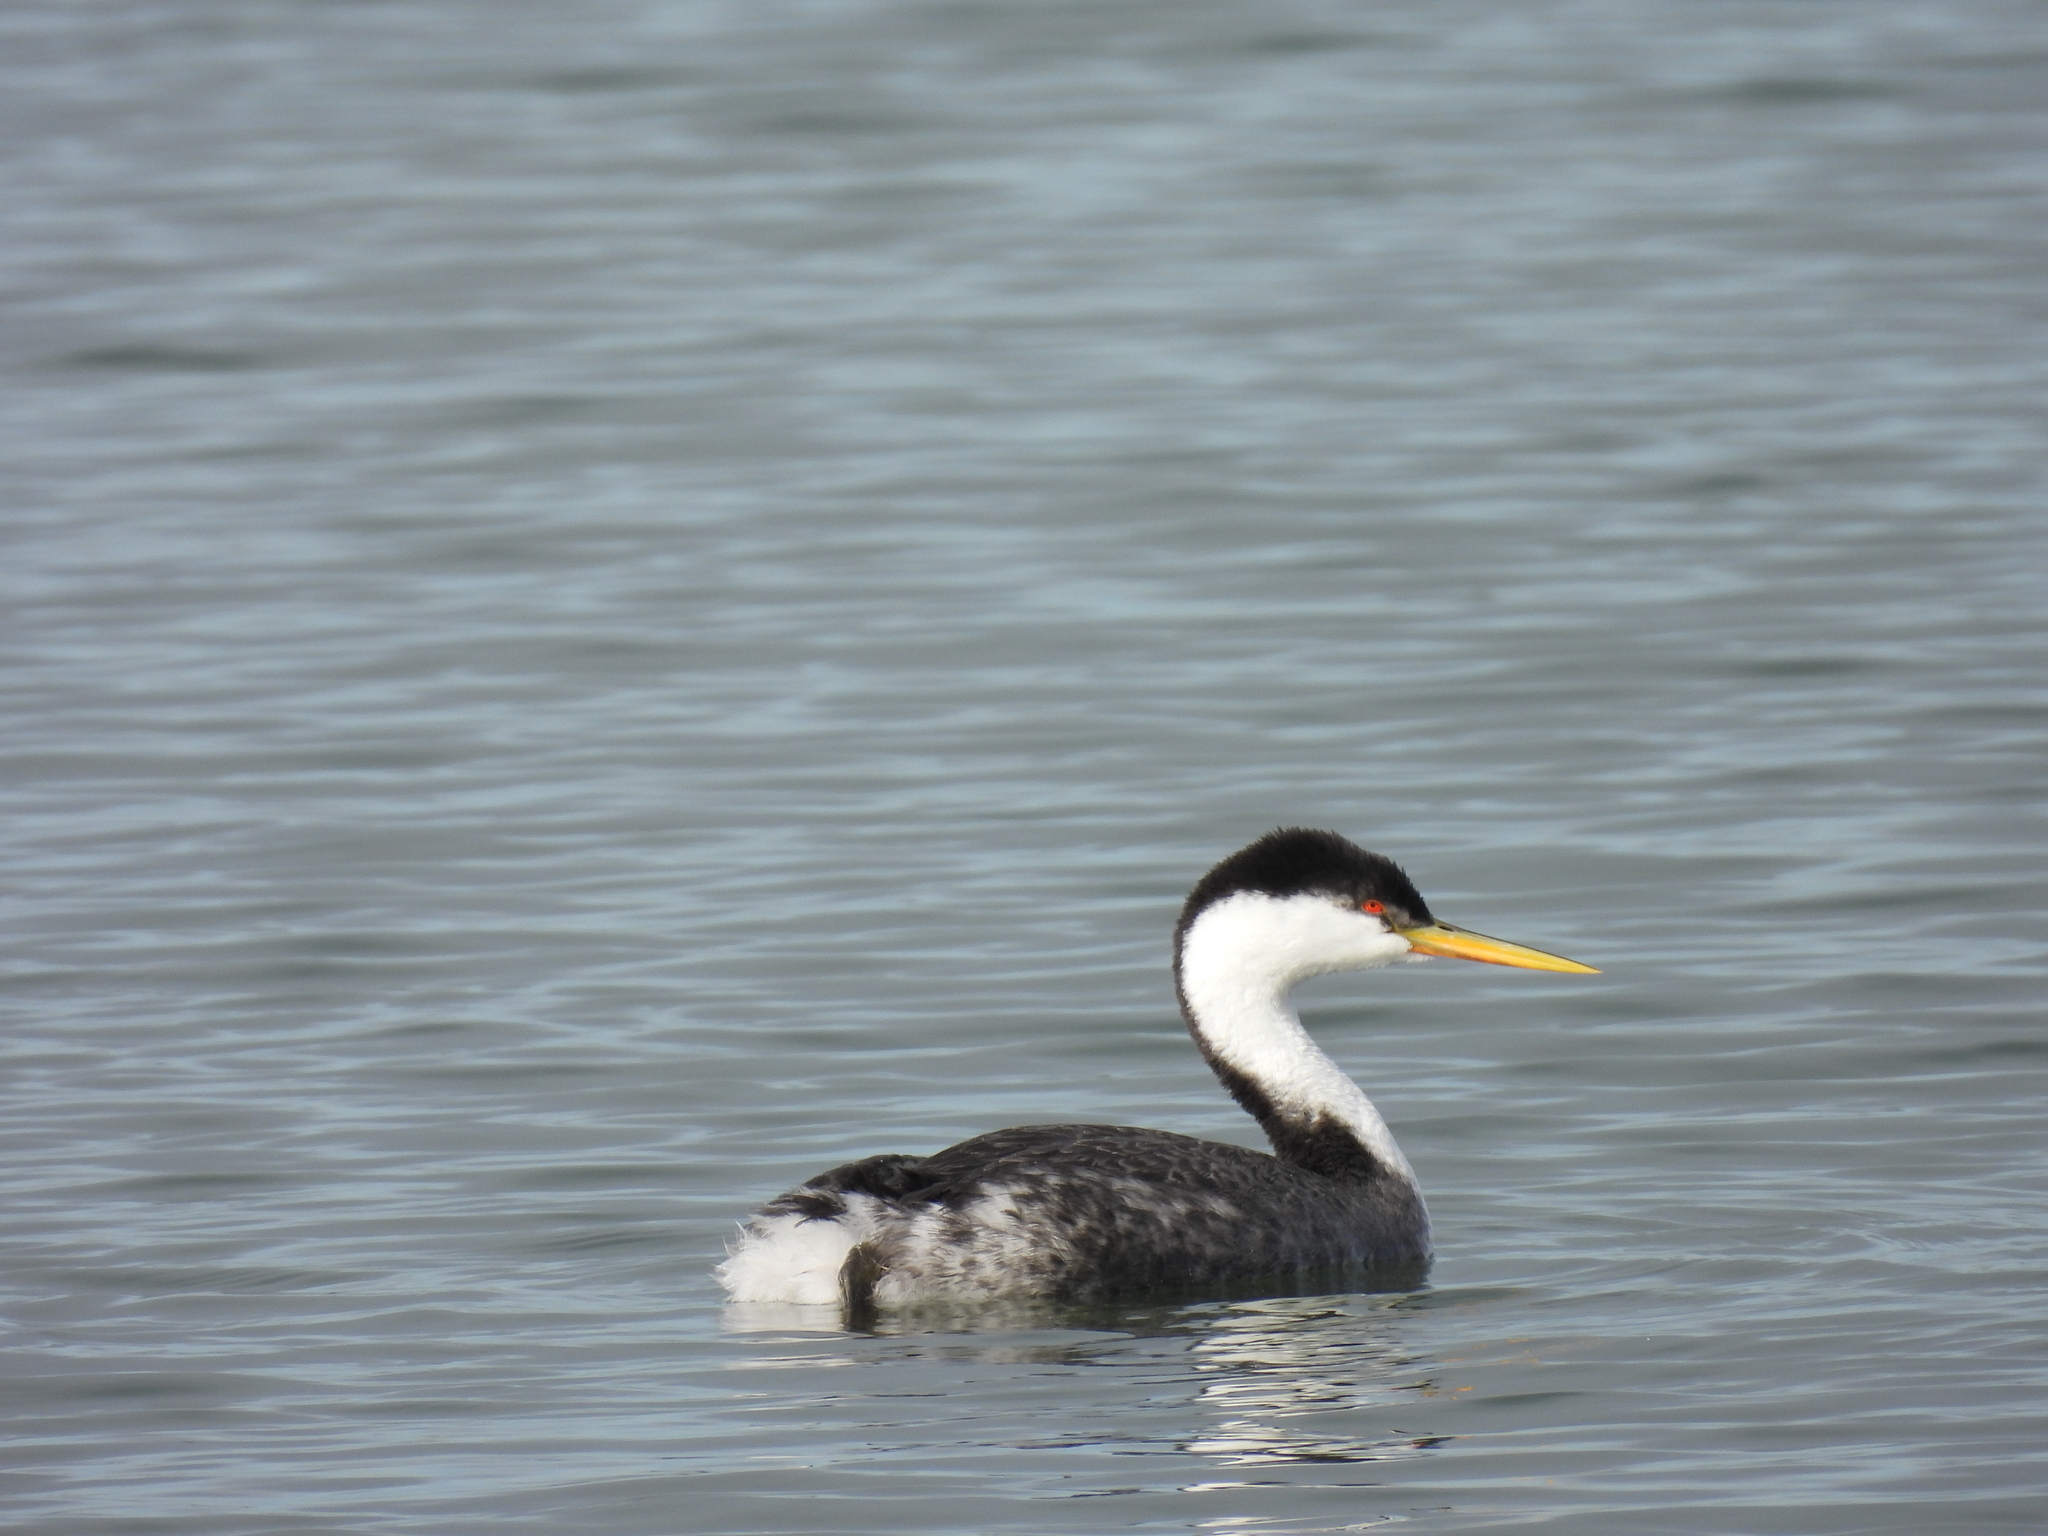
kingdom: Animalia
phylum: Chordata
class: Aves
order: Podicipediformes
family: Podicipedidae
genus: Aechmophorus
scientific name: Aechmophorus occidentalis
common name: Western grebe
